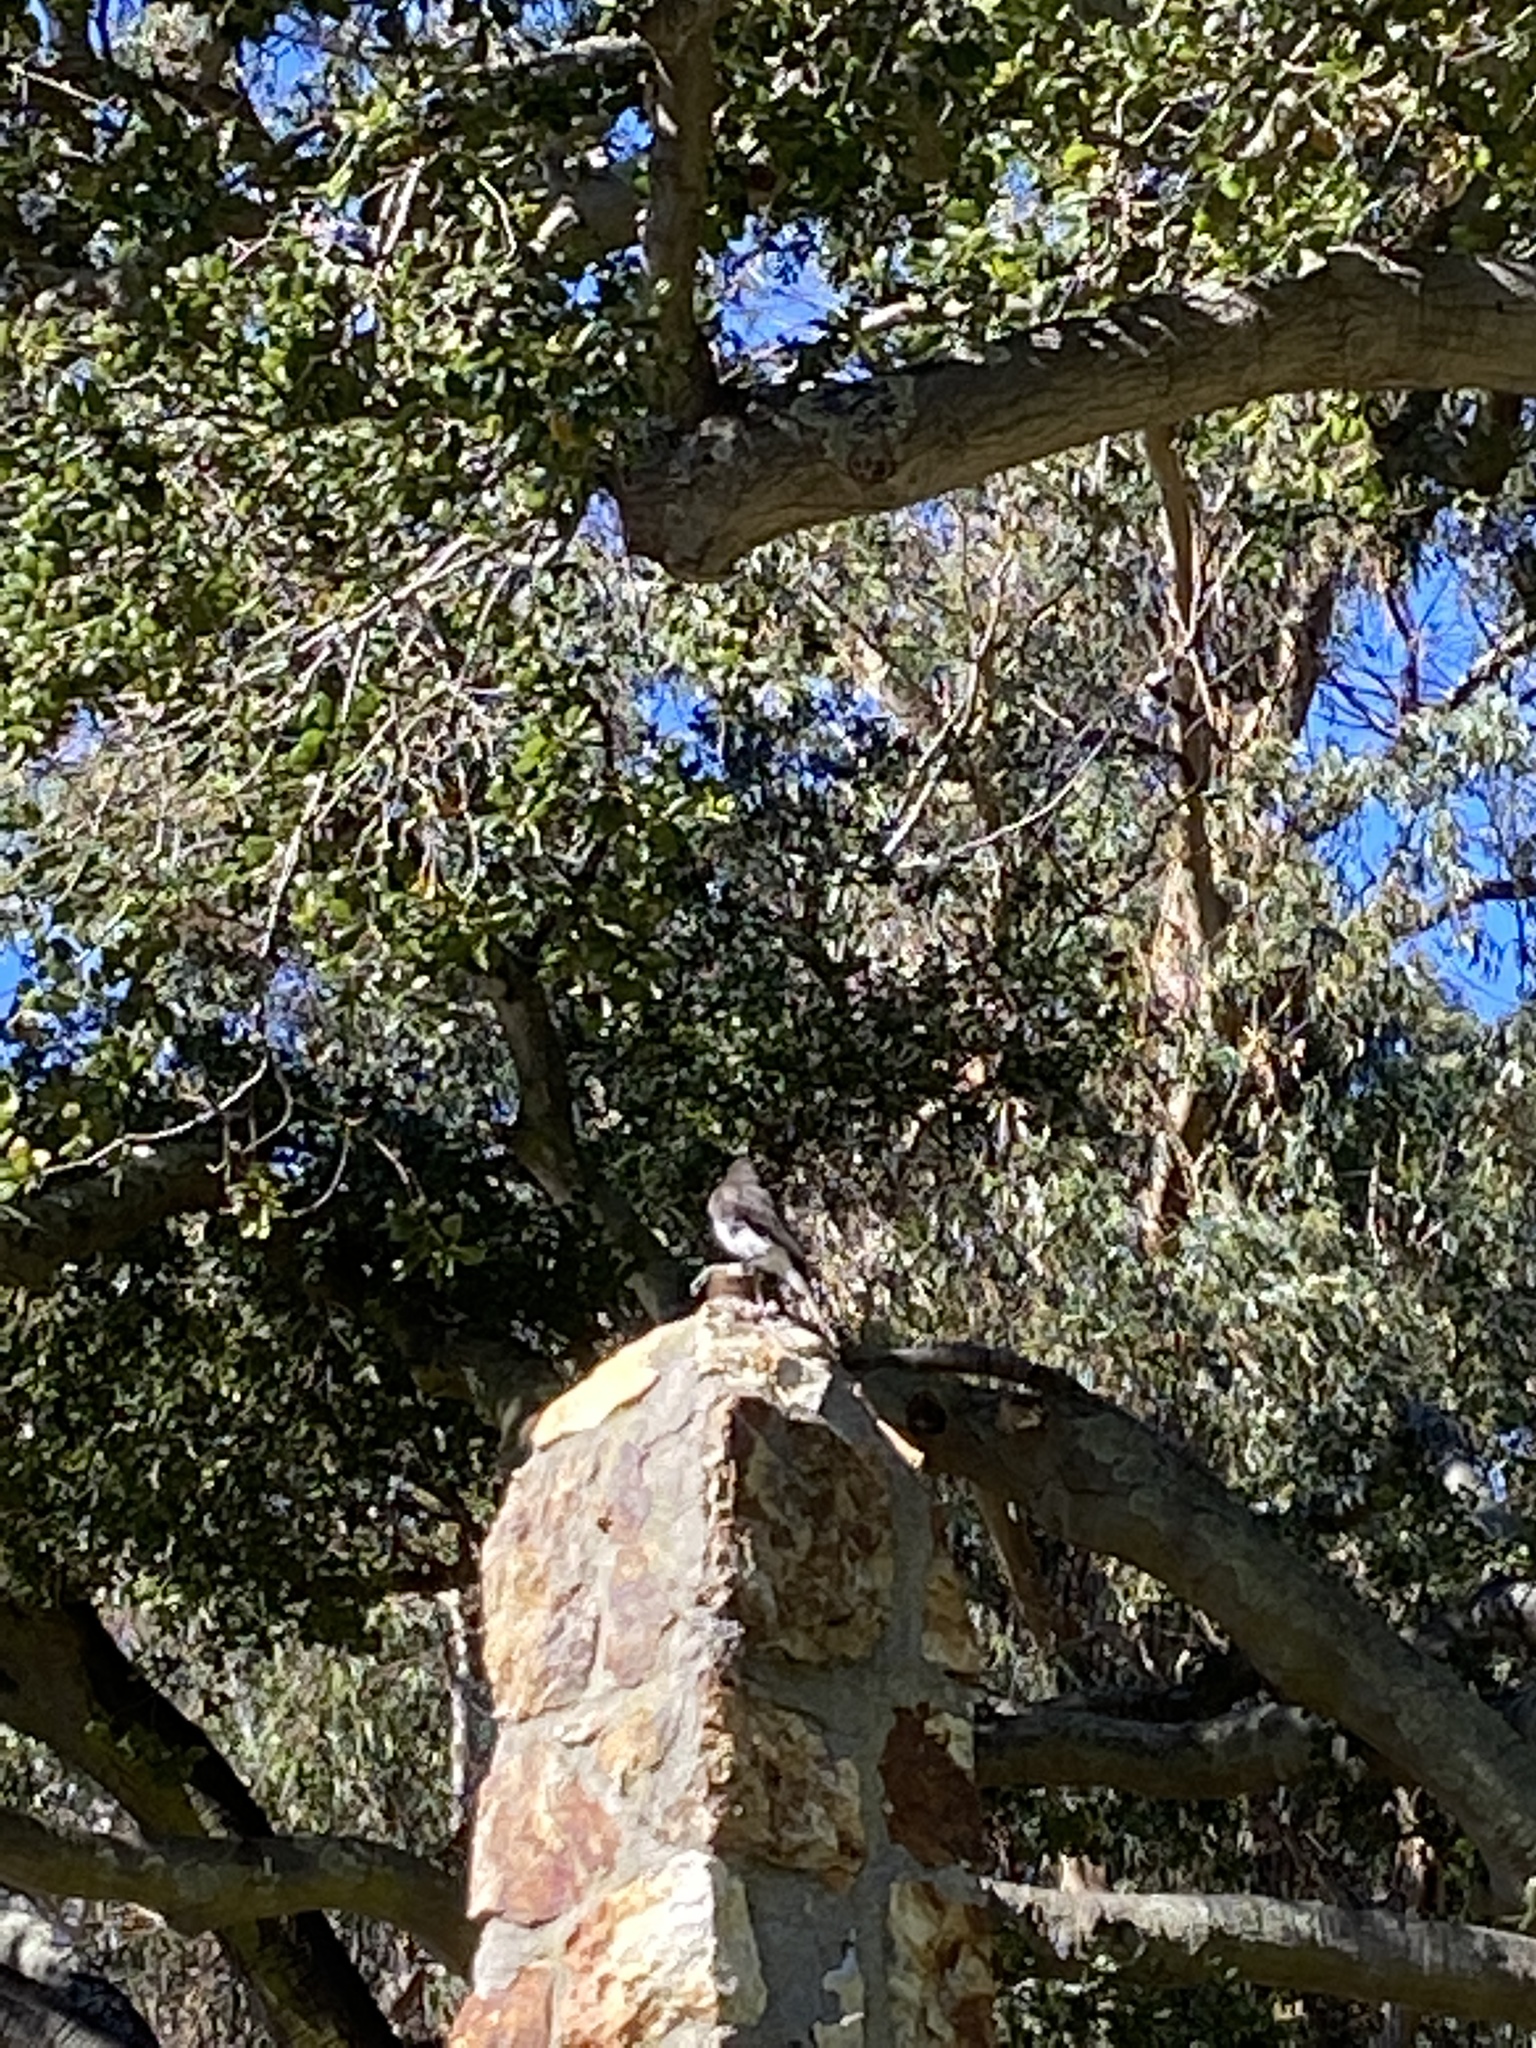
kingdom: Animalia
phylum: Chordata
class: Aves
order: Passeriformes
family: Tyrannidae
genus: Sayornis
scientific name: Sayornis nigricans
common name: Black phoebe
